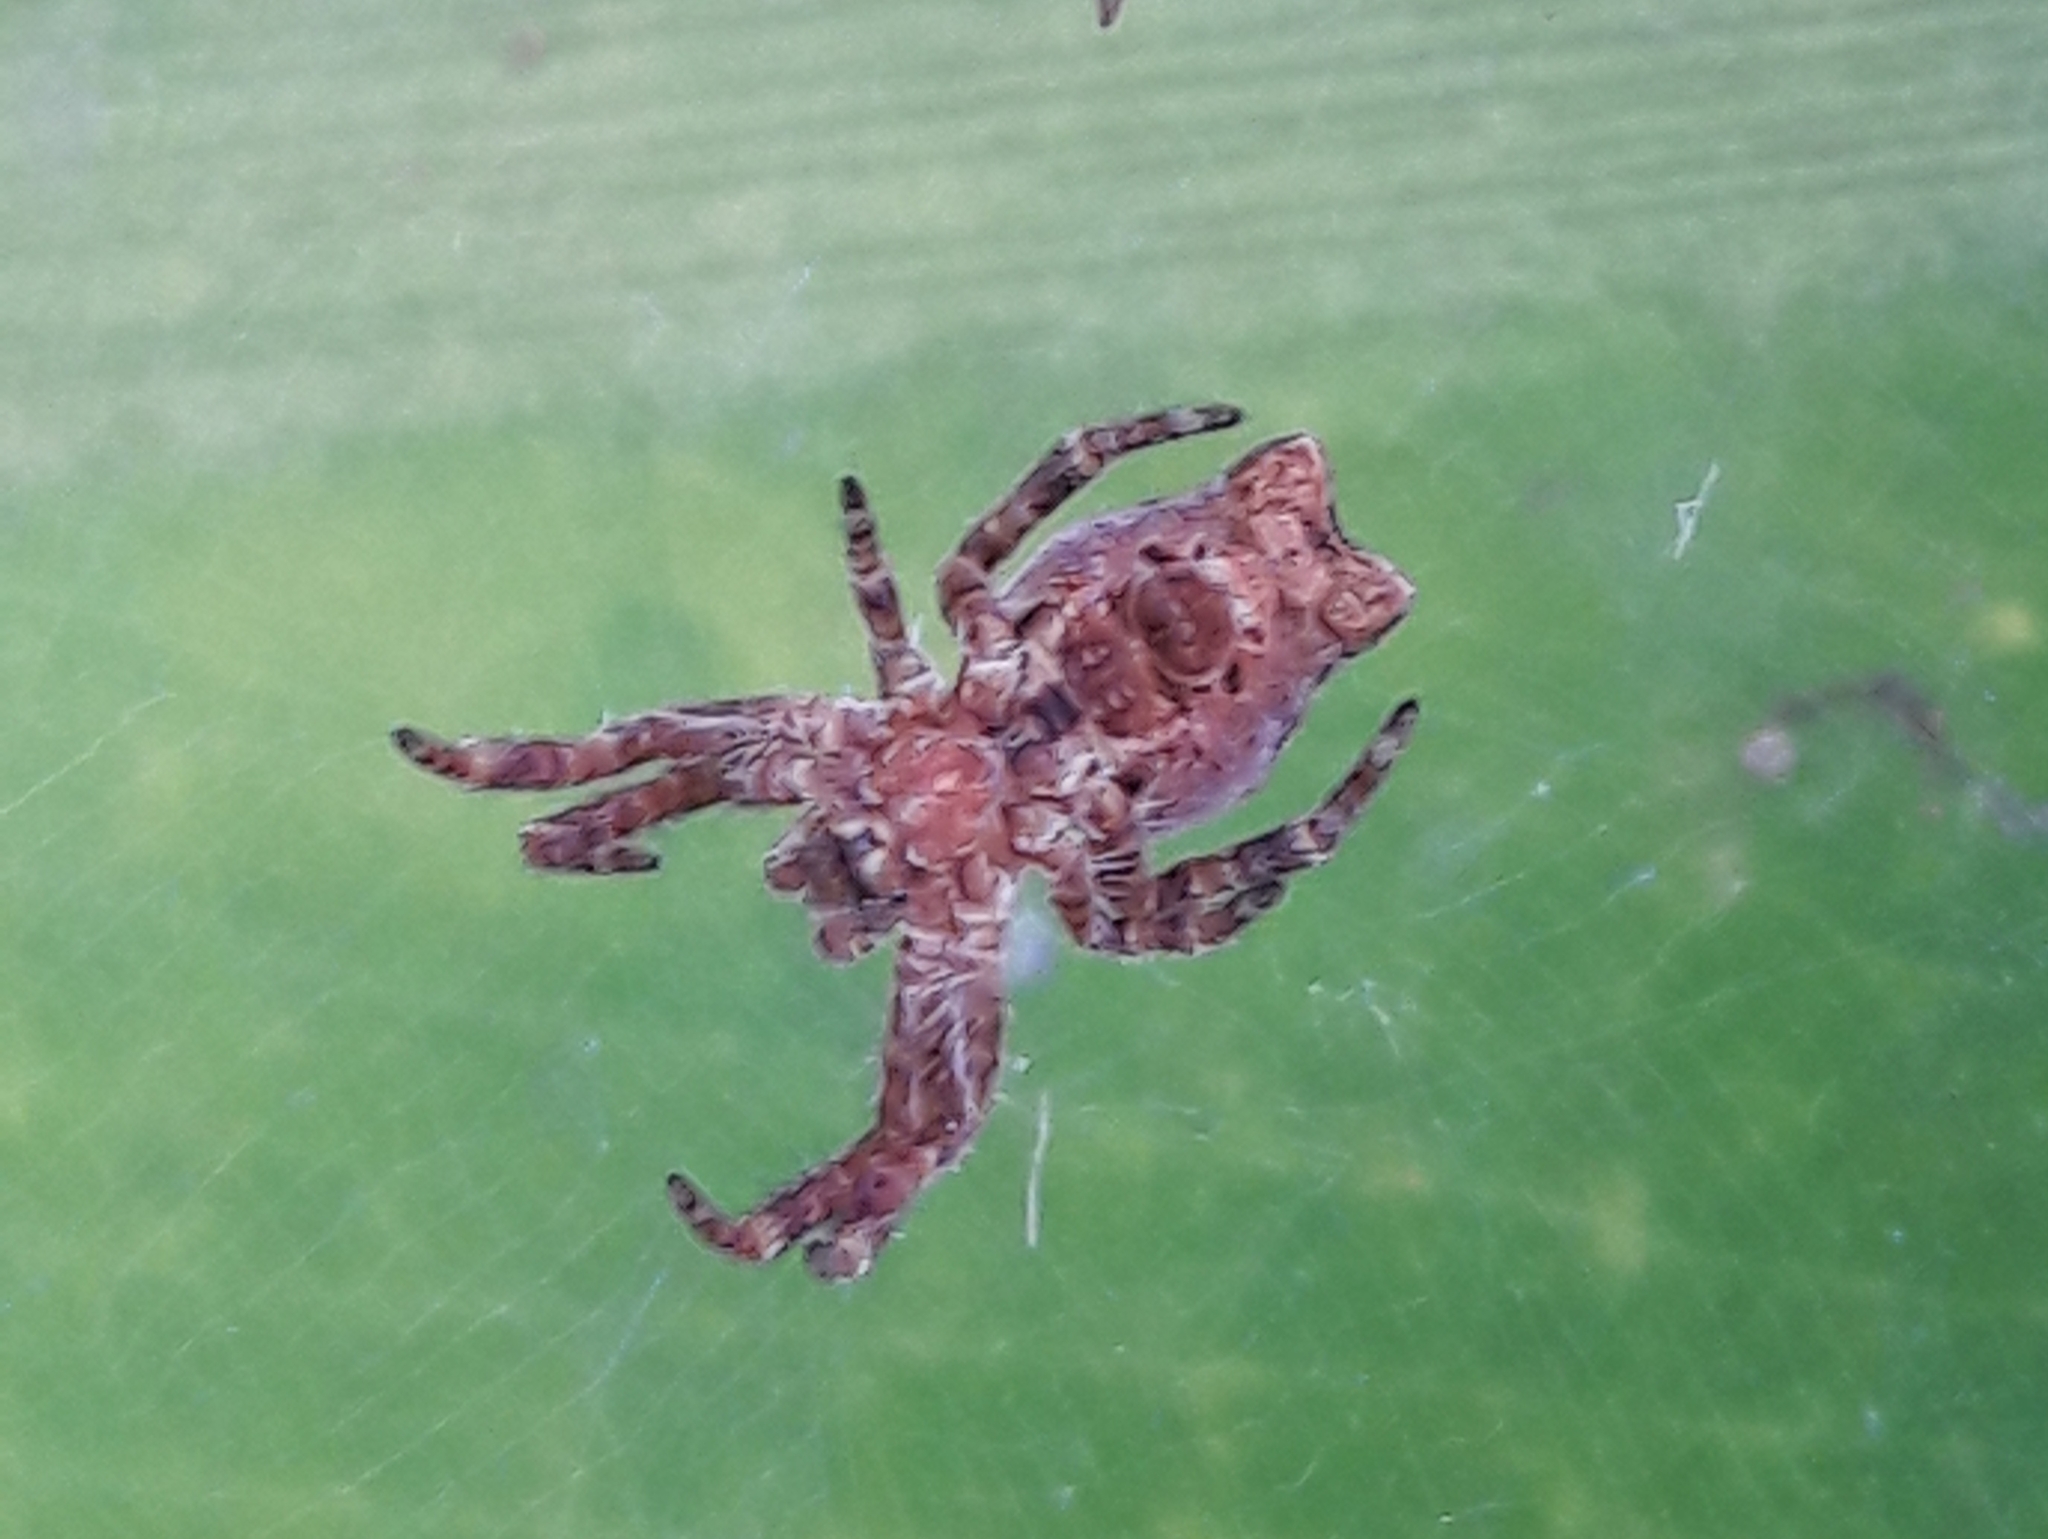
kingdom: Animalia
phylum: Arthropoda
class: Arachnida
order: Araneae
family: Araneidae
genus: Cyrtophora
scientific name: Cyrtophora citricola
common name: Orb weavers
